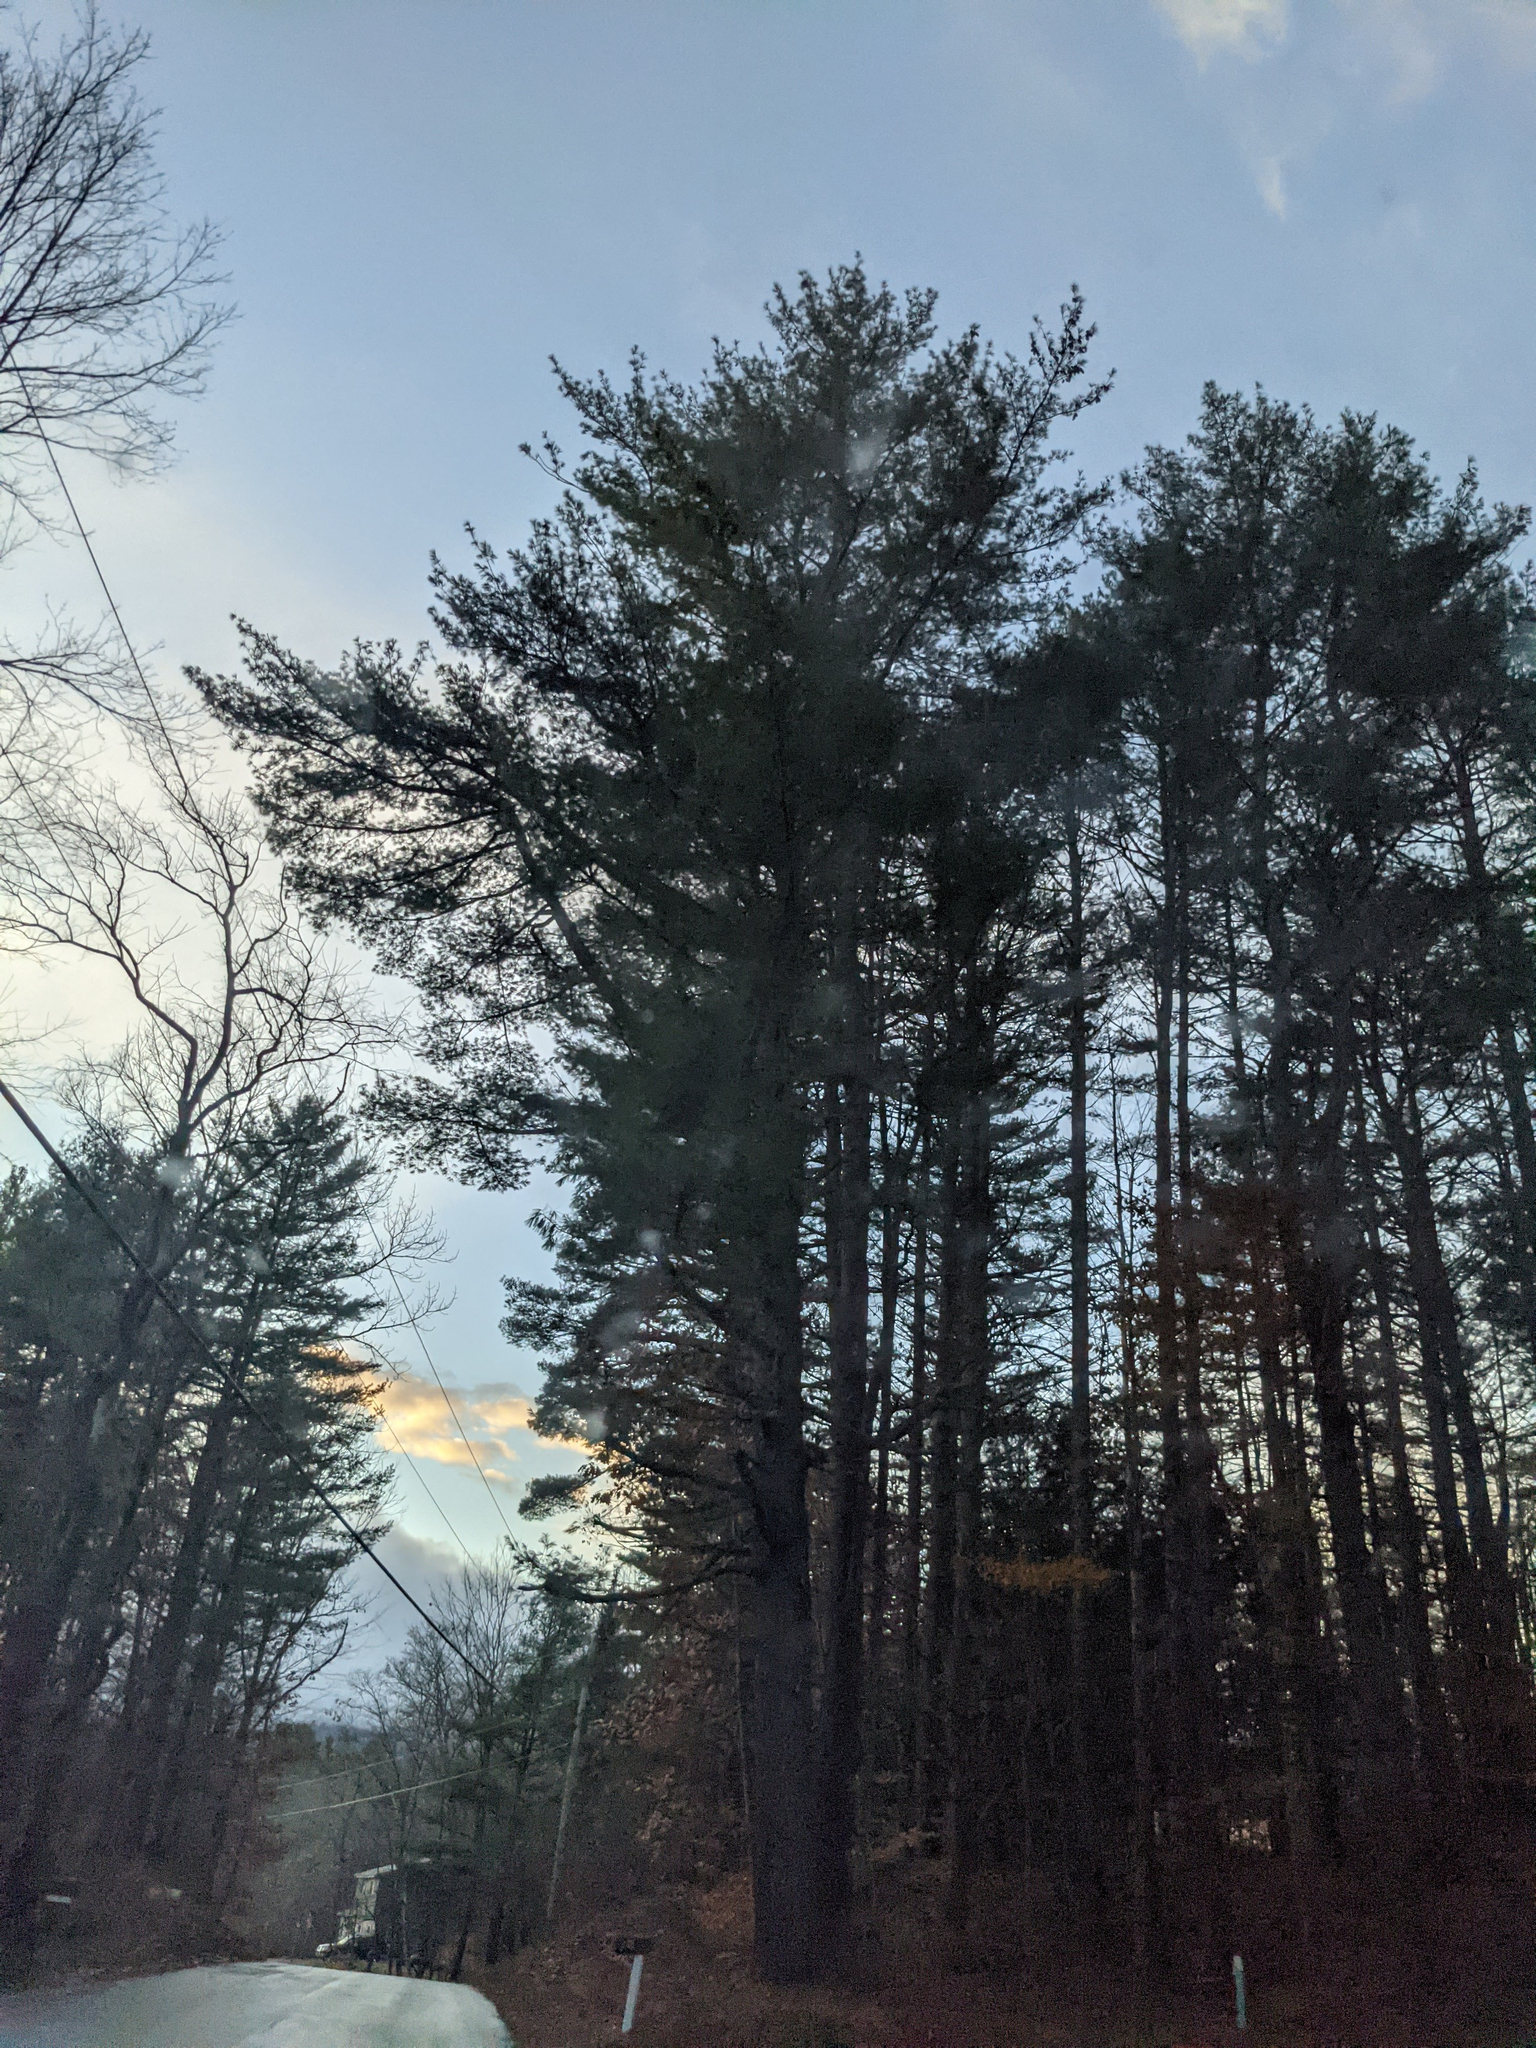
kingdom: Plantae
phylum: Tracheophyta
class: Pinopsida
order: Pinales
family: Pinaceae
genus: Pinus
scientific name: Pinus strobus
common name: Weymouth pine
